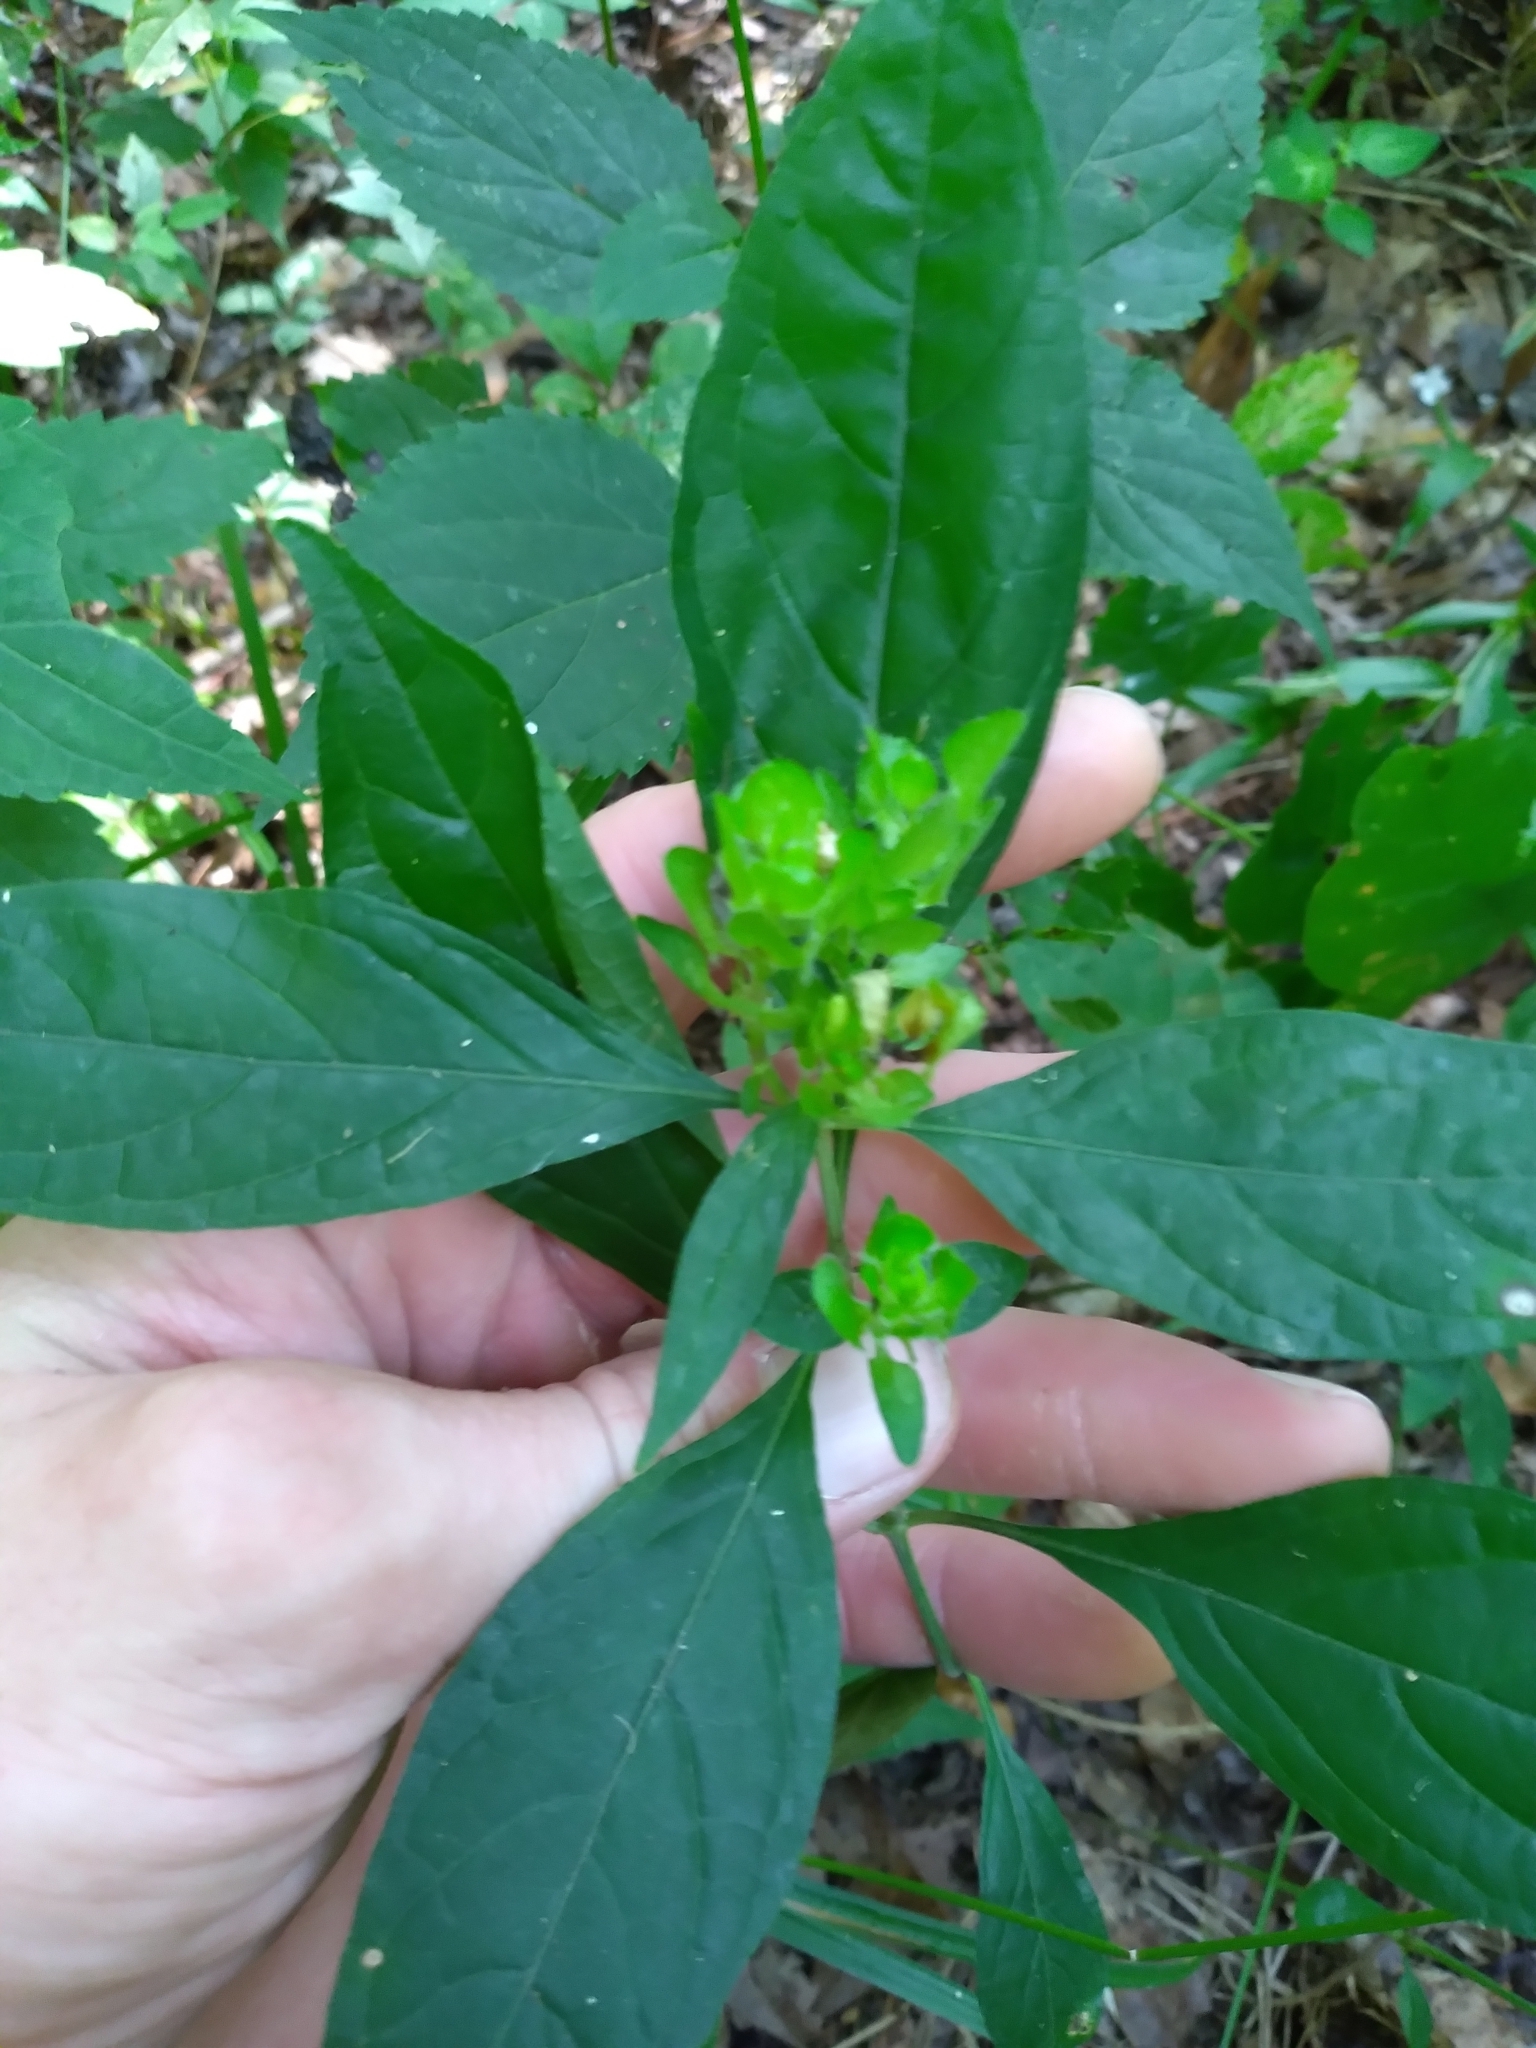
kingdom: Plantae
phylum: Tracheophyta
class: Magnoliopsida
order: Lamiales
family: Acanthaceae
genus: Yeatesia
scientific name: Yeatesia viridiflora
